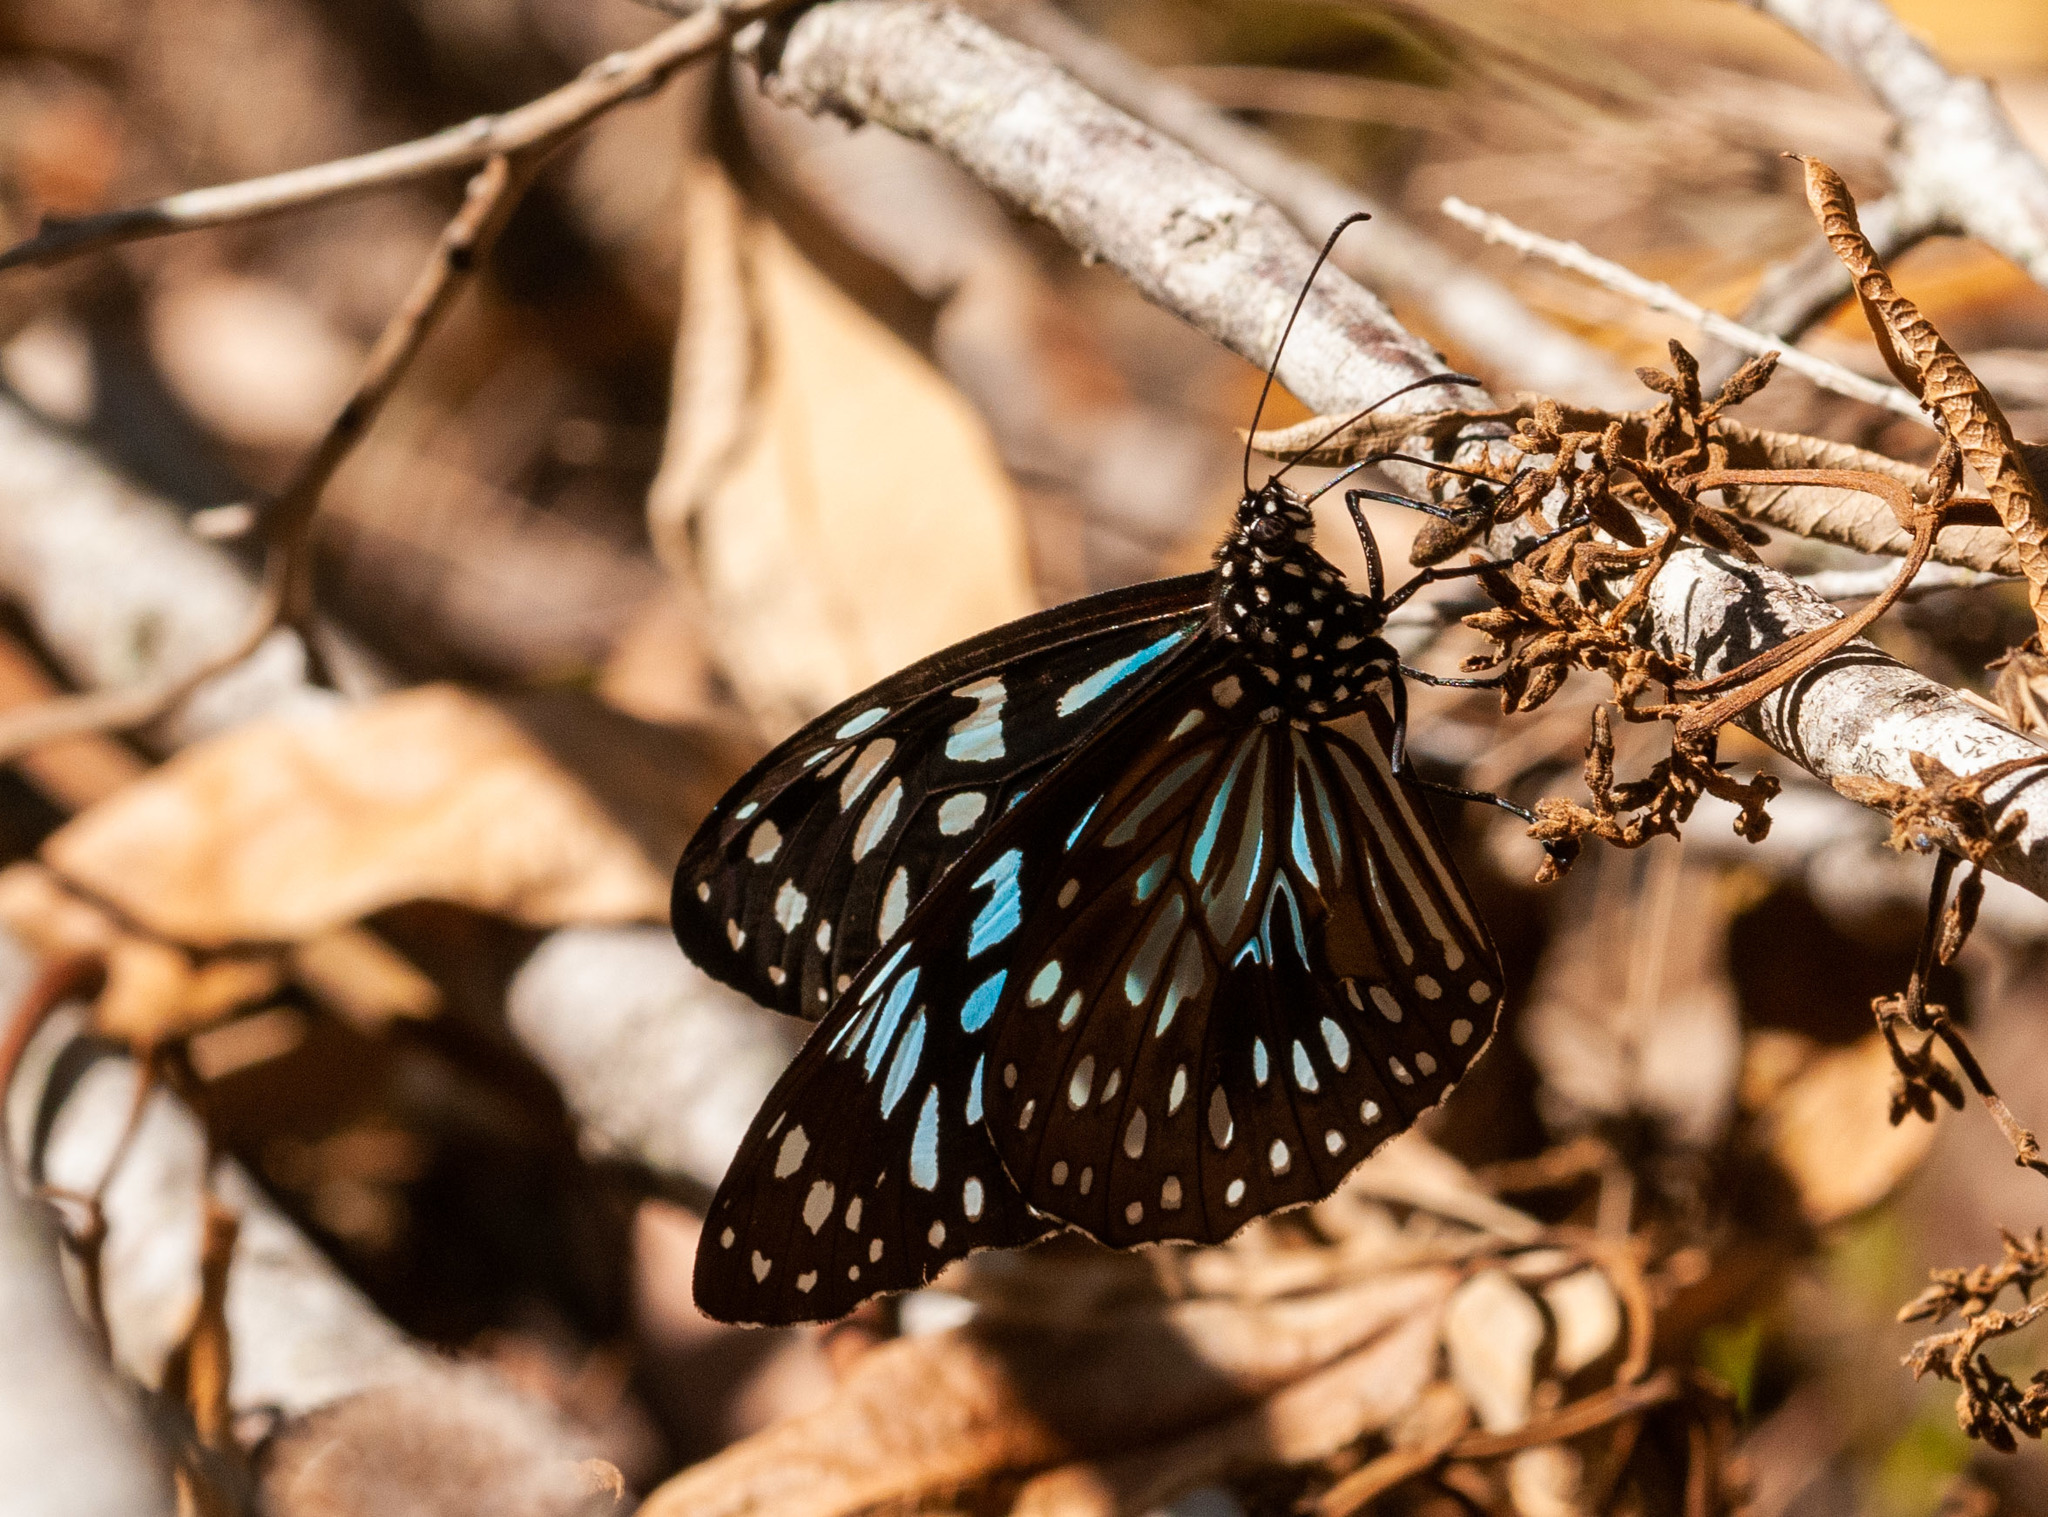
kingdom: Animalia
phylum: Arthropoda
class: Insecta
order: Lepidoptera
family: Nymphalidae
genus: Tirumala
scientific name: Tirumala hamata
